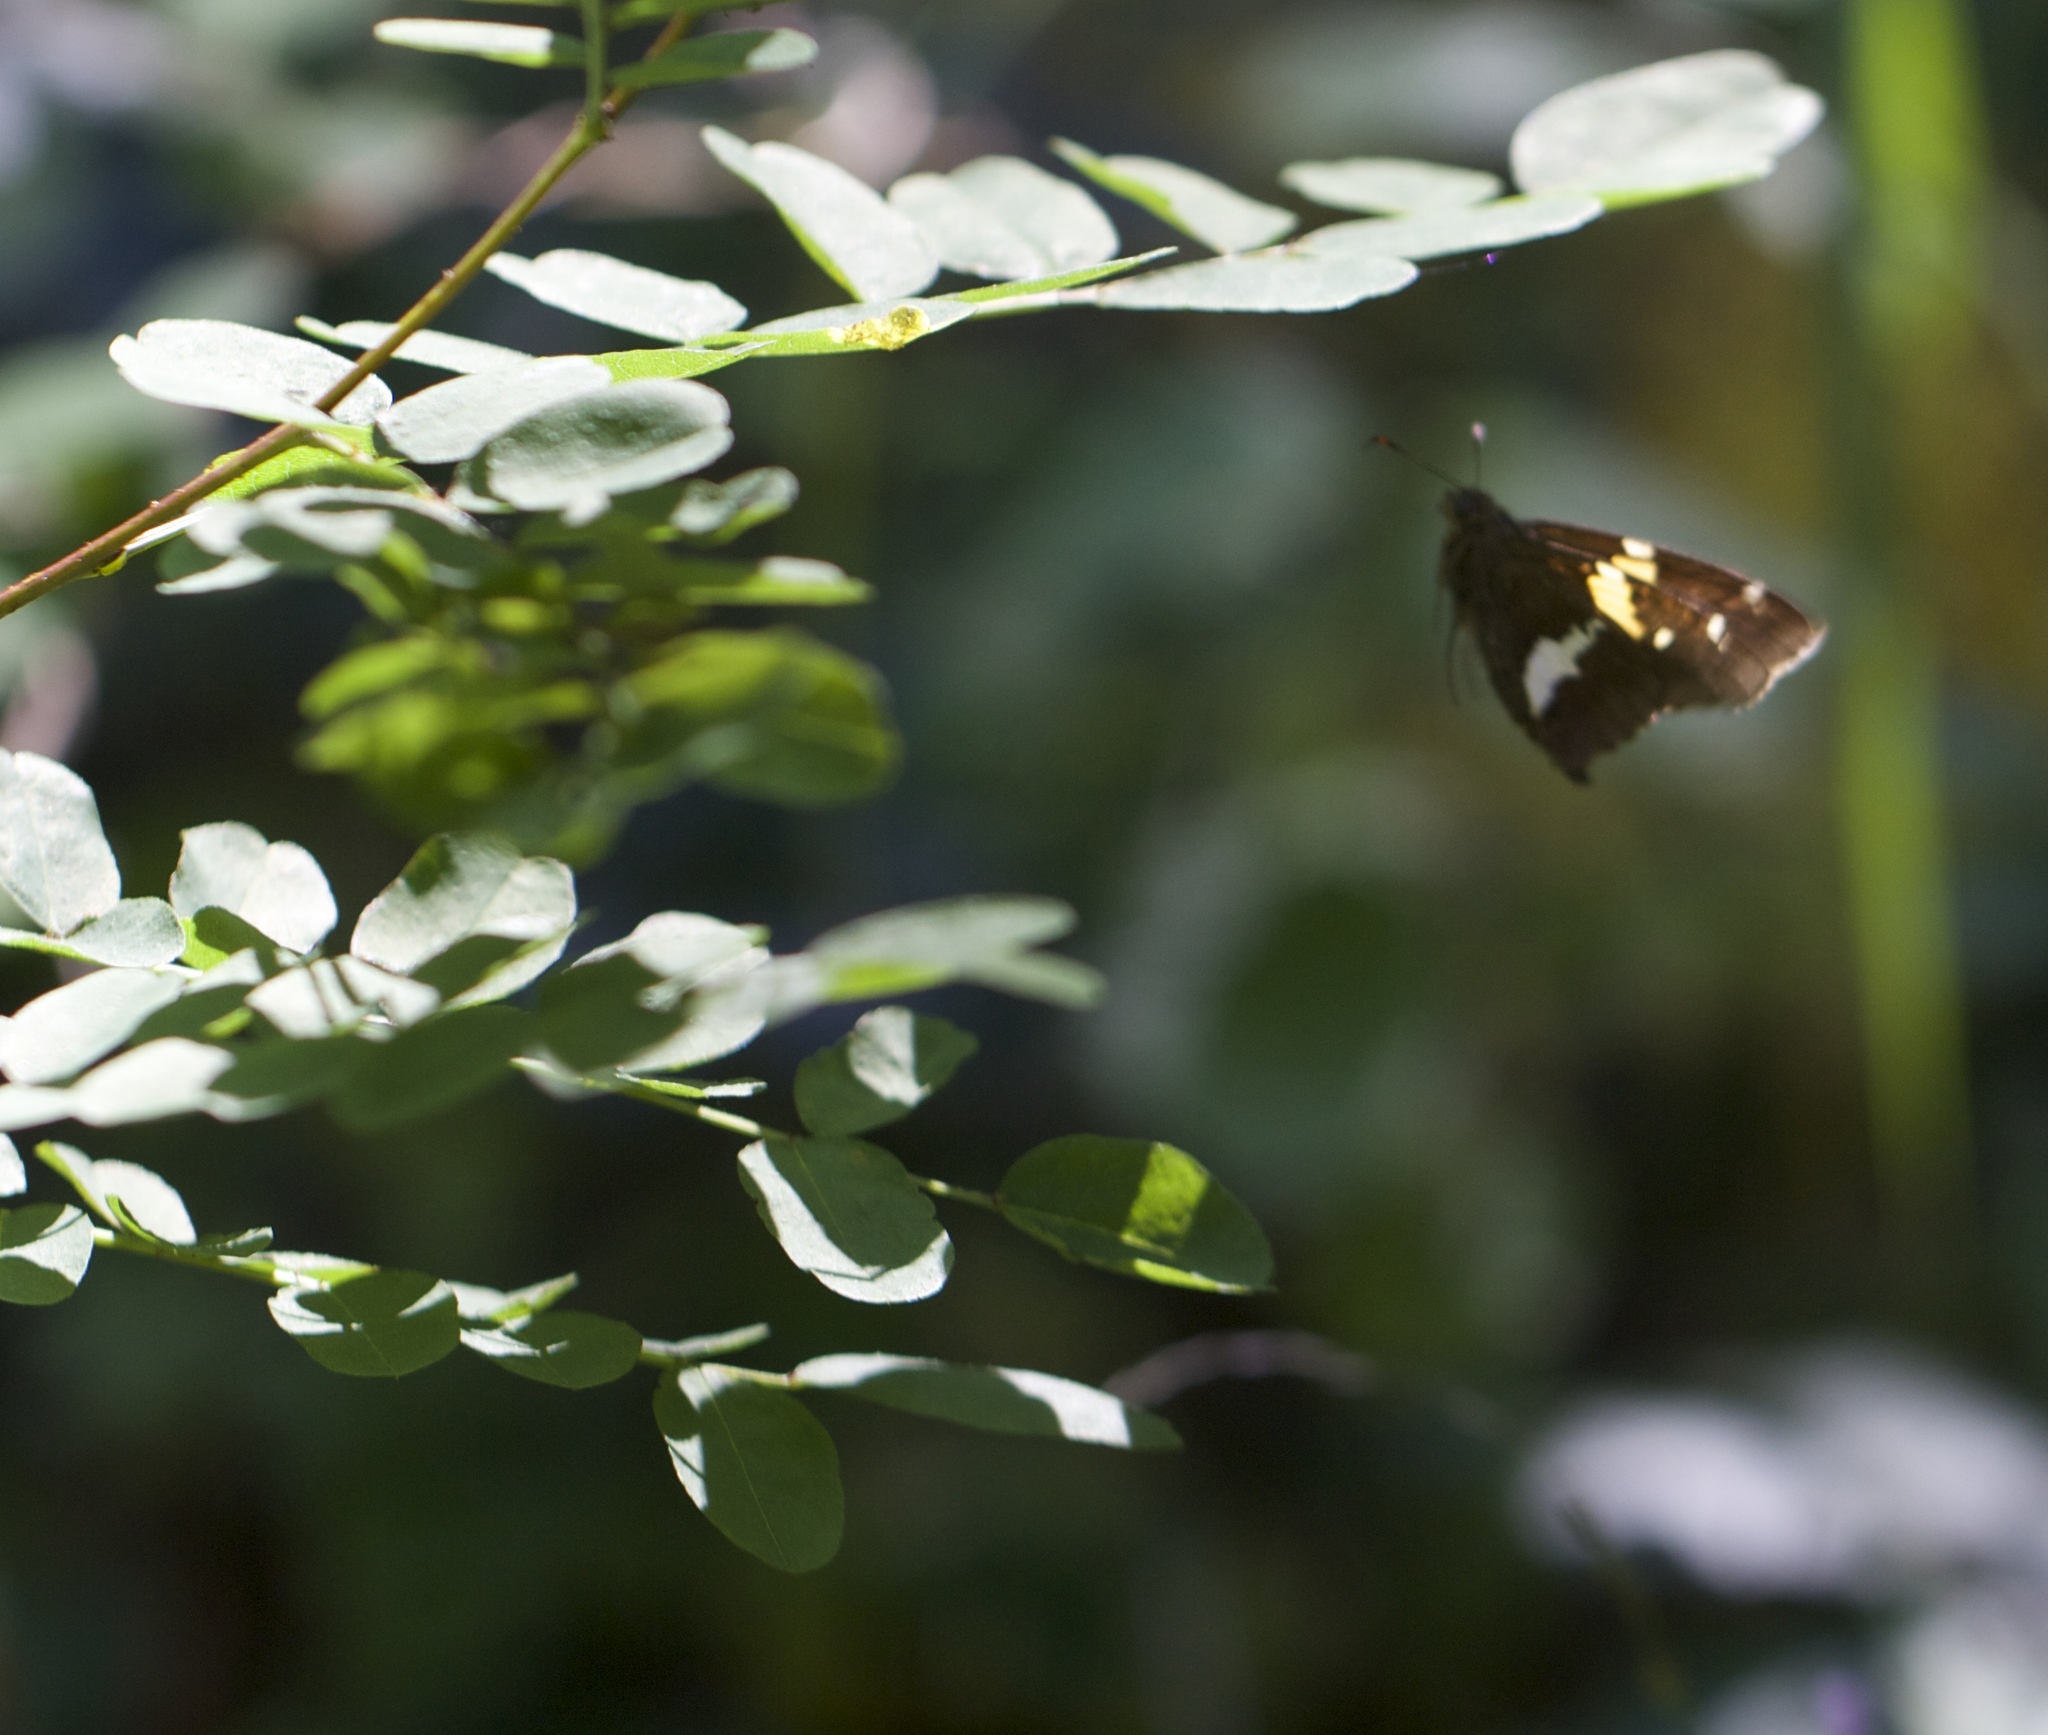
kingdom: Animalia
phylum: Arthropoda
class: Insecta
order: Lepidoptera
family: Hesperiidae
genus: Epargyreus
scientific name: Epargyreus clarus
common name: Silver-spotted skipper
